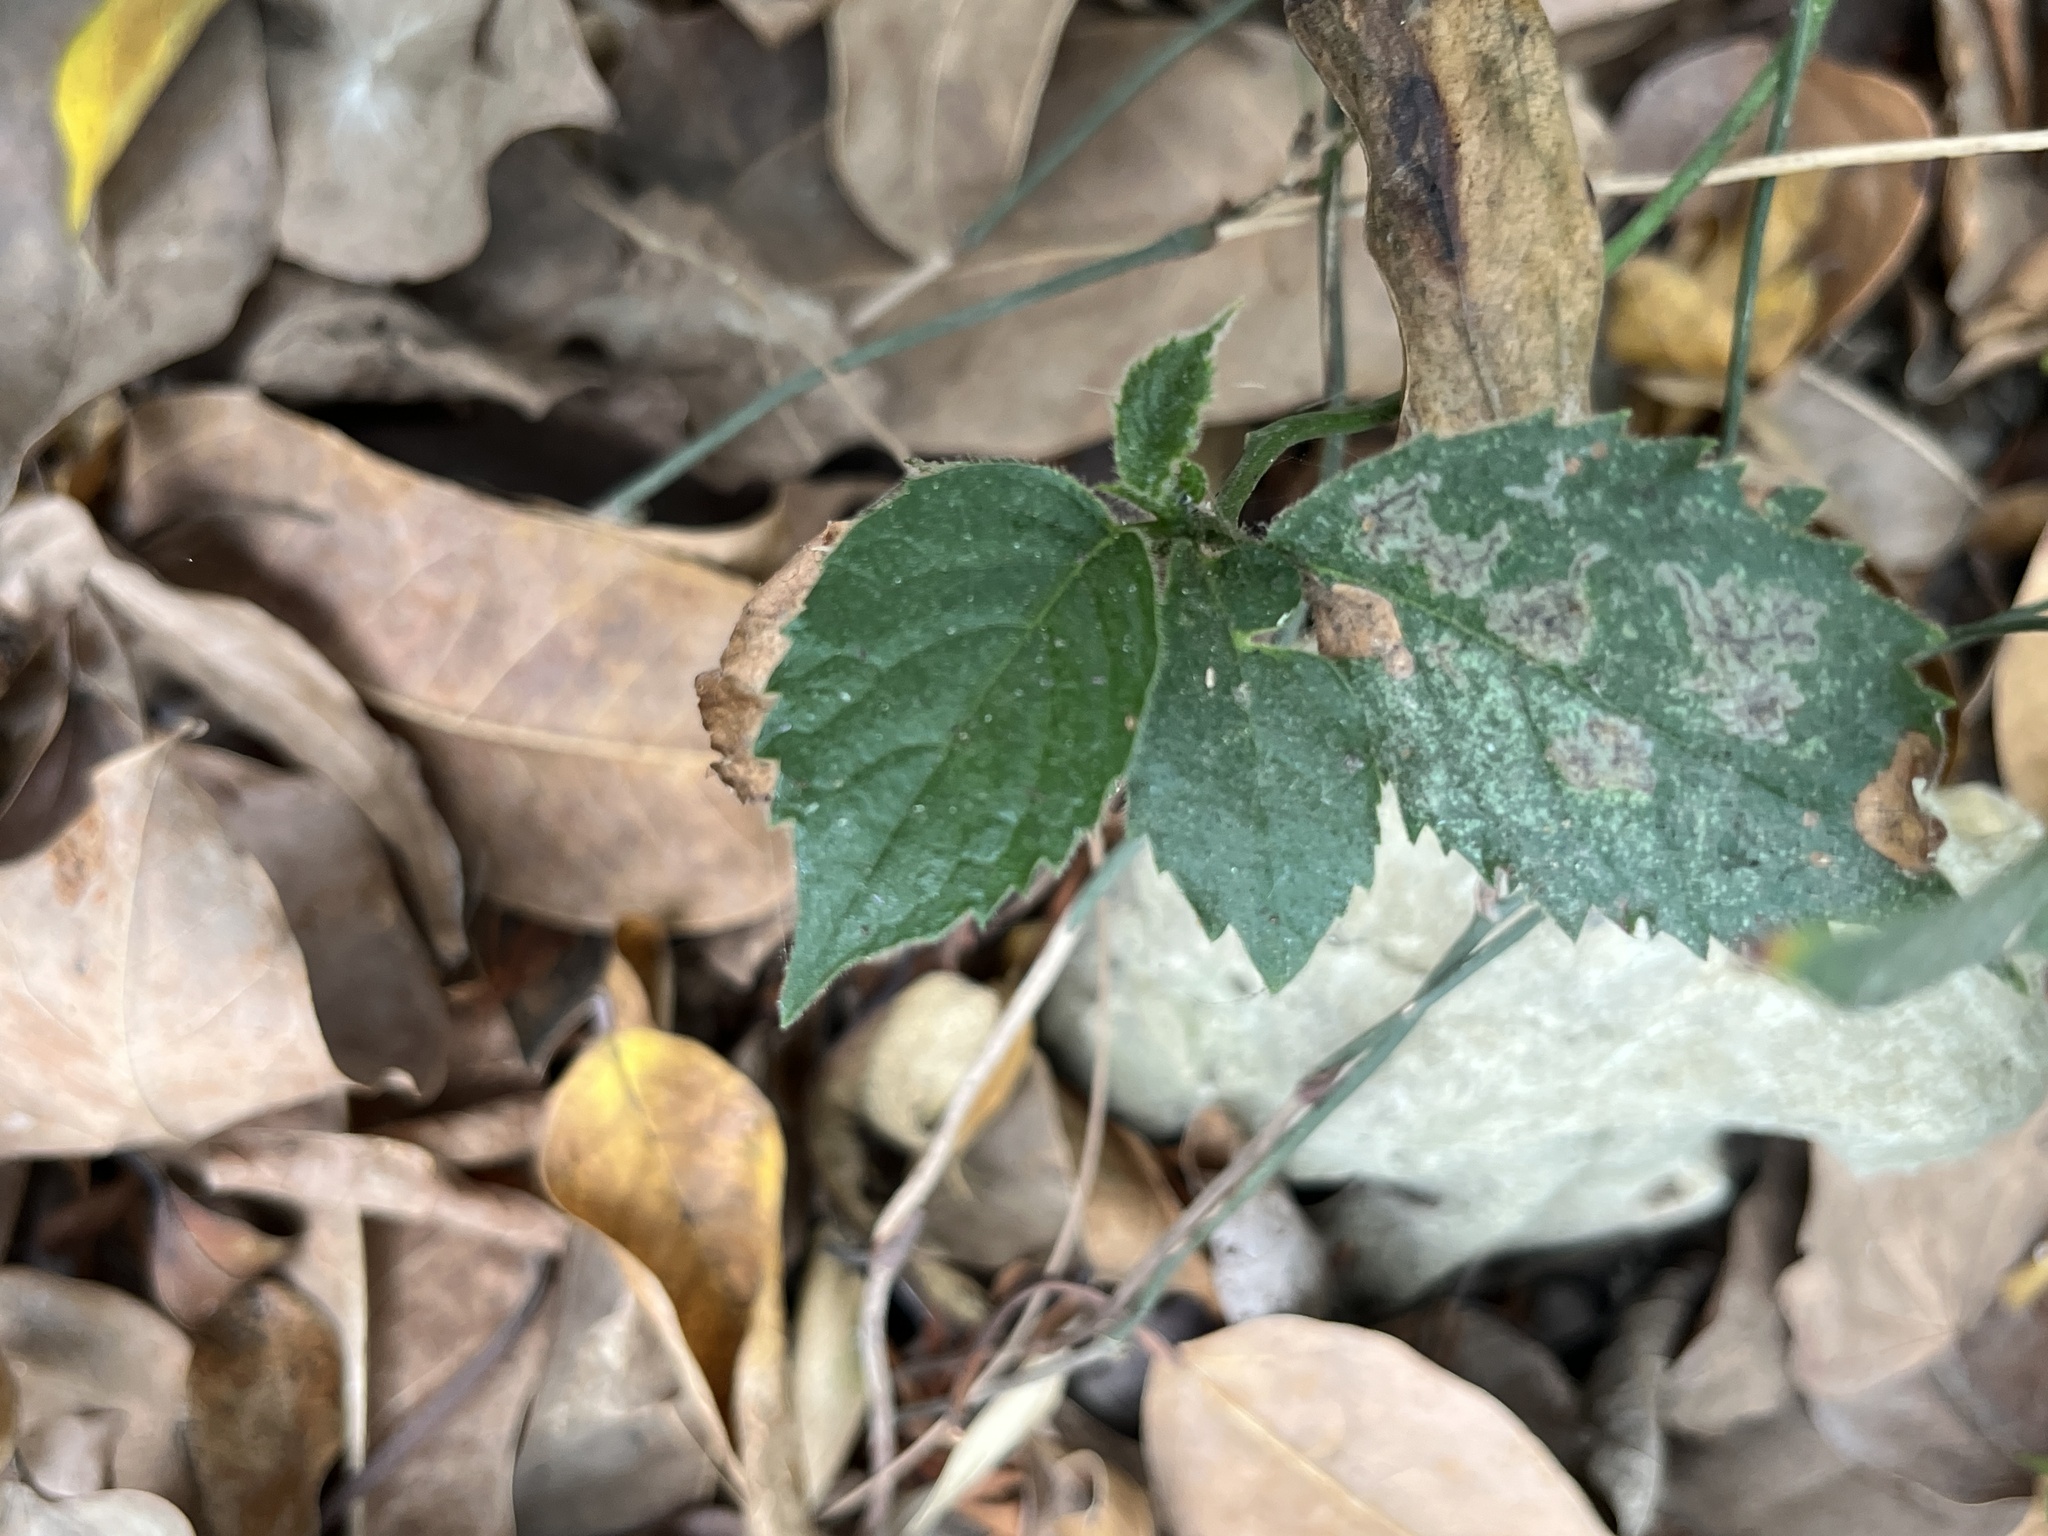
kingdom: Plantae
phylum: Tracheophyta
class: Magnoliopsida
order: Boraginales
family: Ehretiaceae
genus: Ehretia
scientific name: Ehretia resinosa
